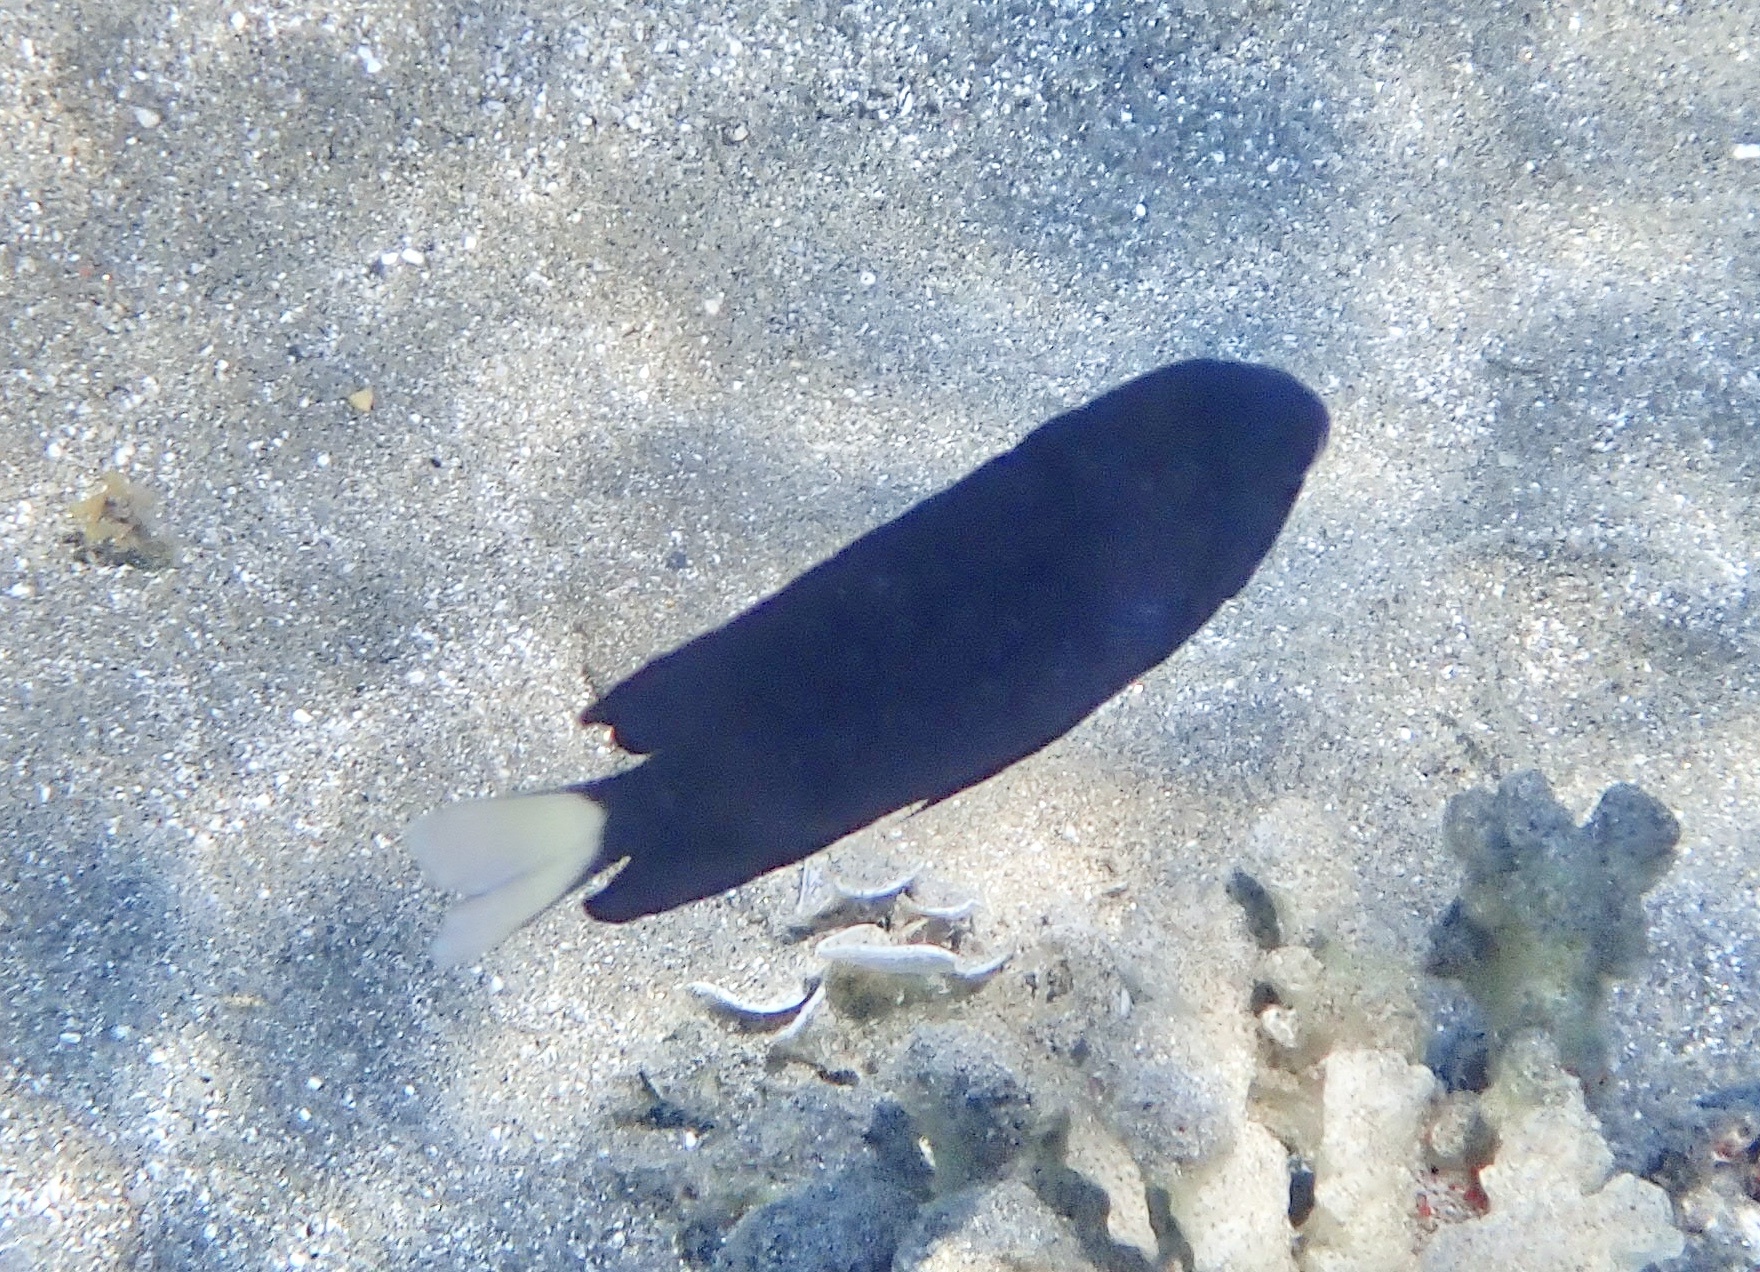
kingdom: Animalia
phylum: Chordata
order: Perciformes
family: Pomacentridae
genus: Pomacentrus
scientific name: Pomacentrus trichrourus
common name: Paletail damsel
